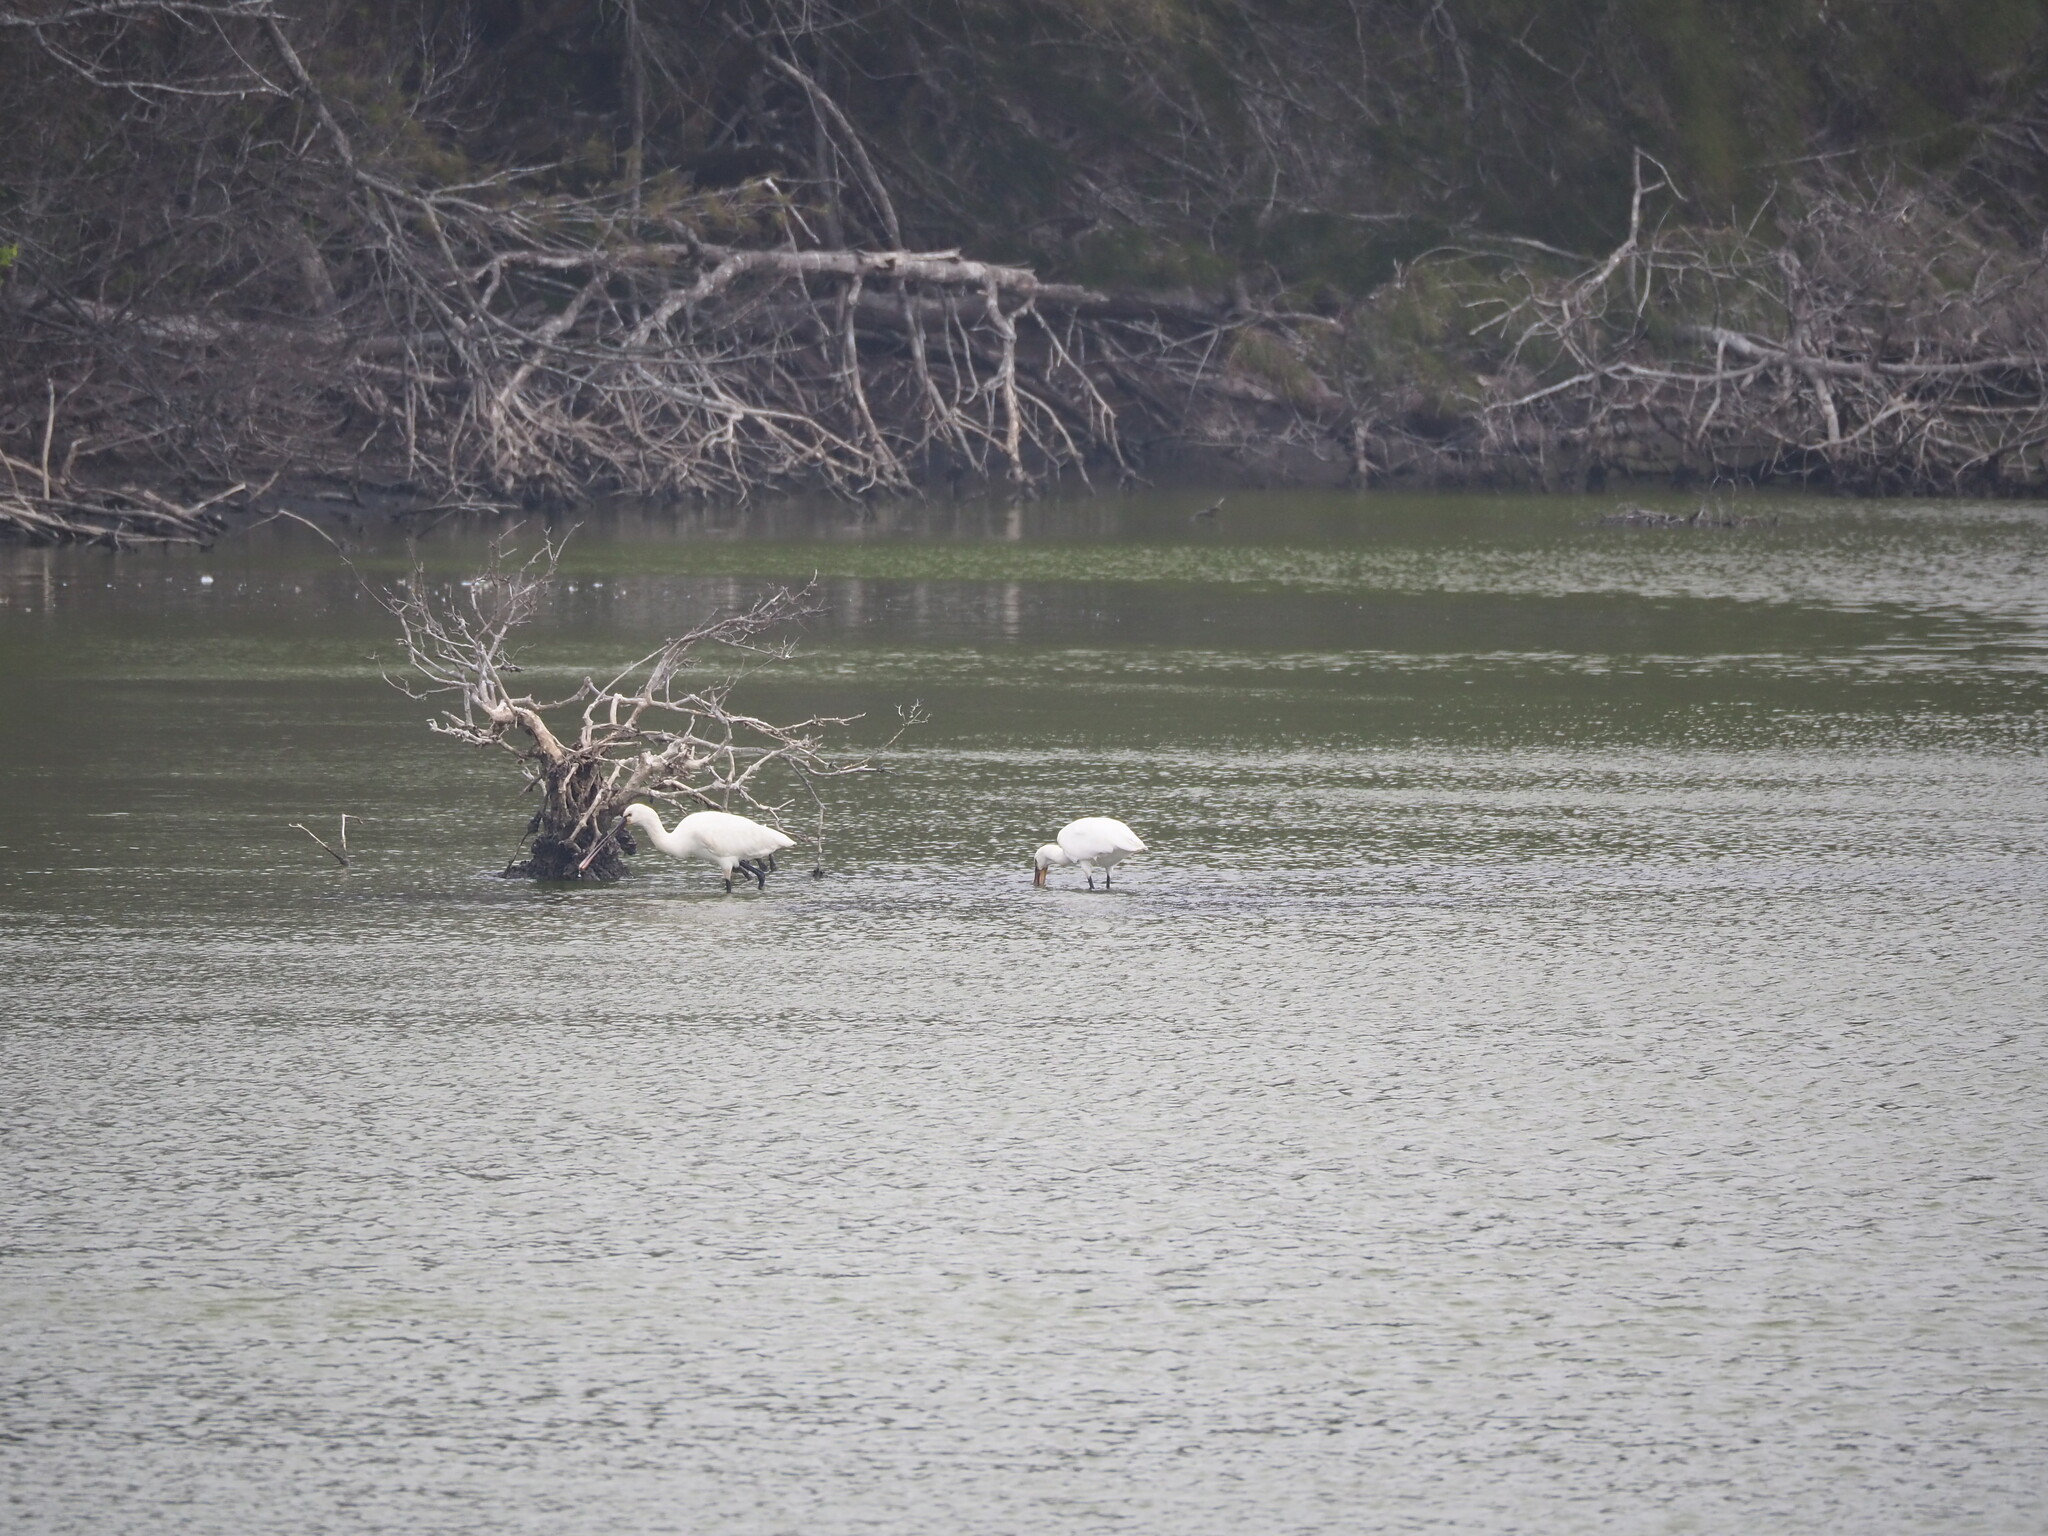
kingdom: Animalia
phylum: Chordata
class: Aves
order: Pelecaniformes
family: Threskiornithidae
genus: Platalea
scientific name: Platalea leucorodia
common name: Eurasian spoonbill
